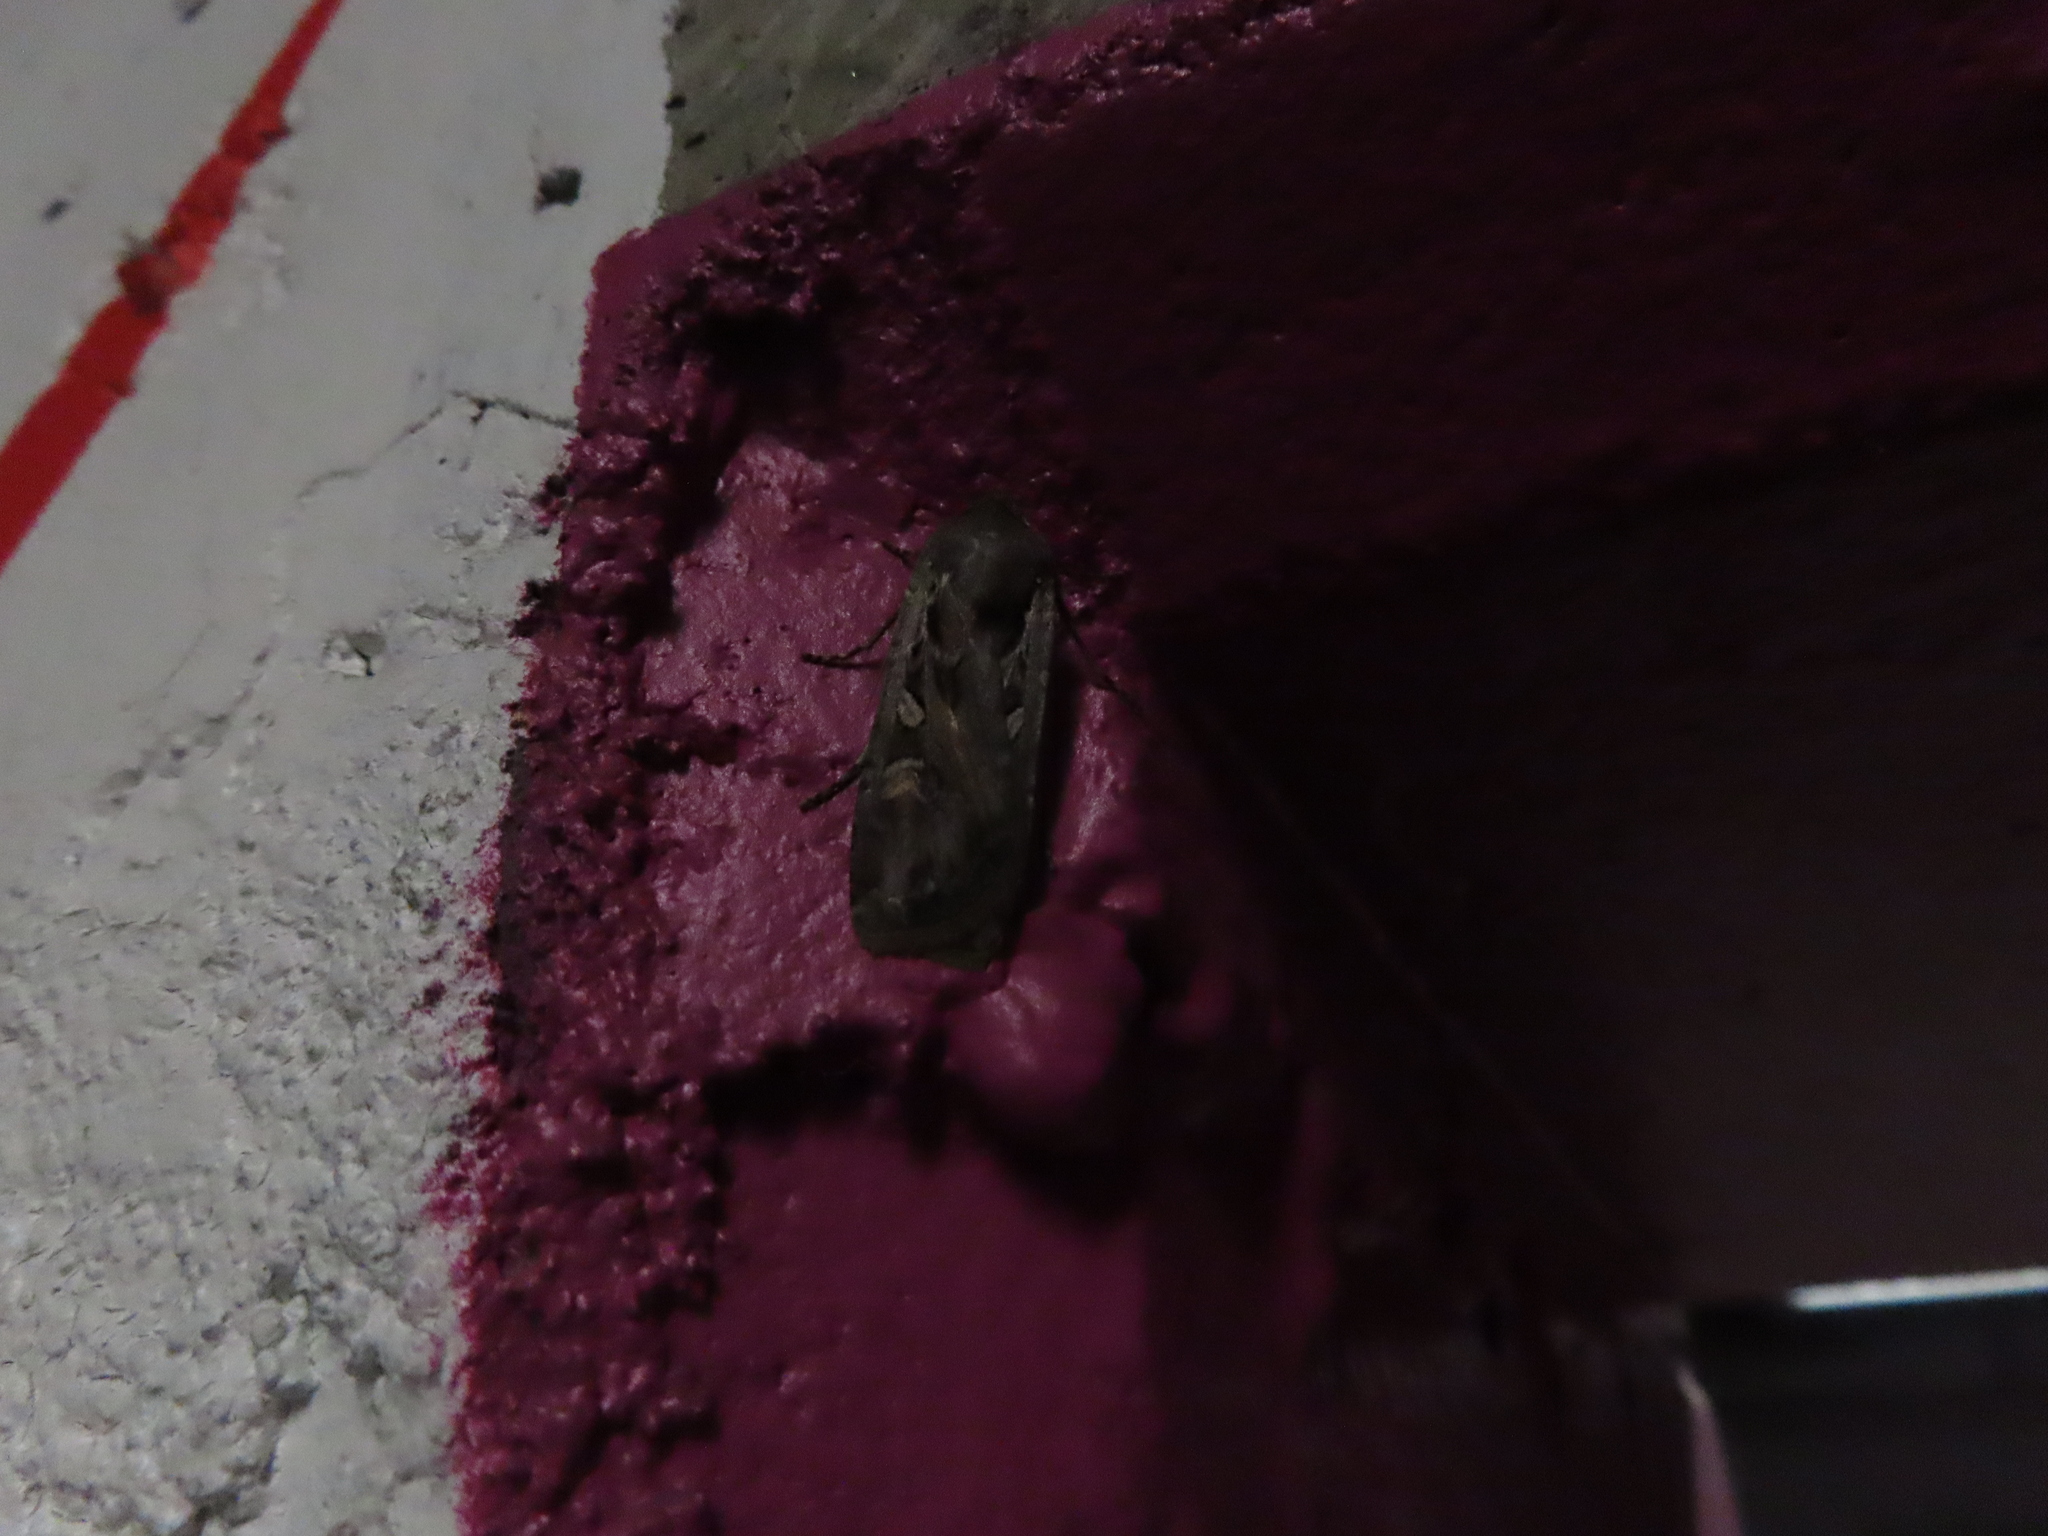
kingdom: Animalia
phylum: Arthropoda
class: Insecta
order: Lepidoptera
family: Noctuidae
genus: Euxoa
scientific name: Euxoa auxiliaris
